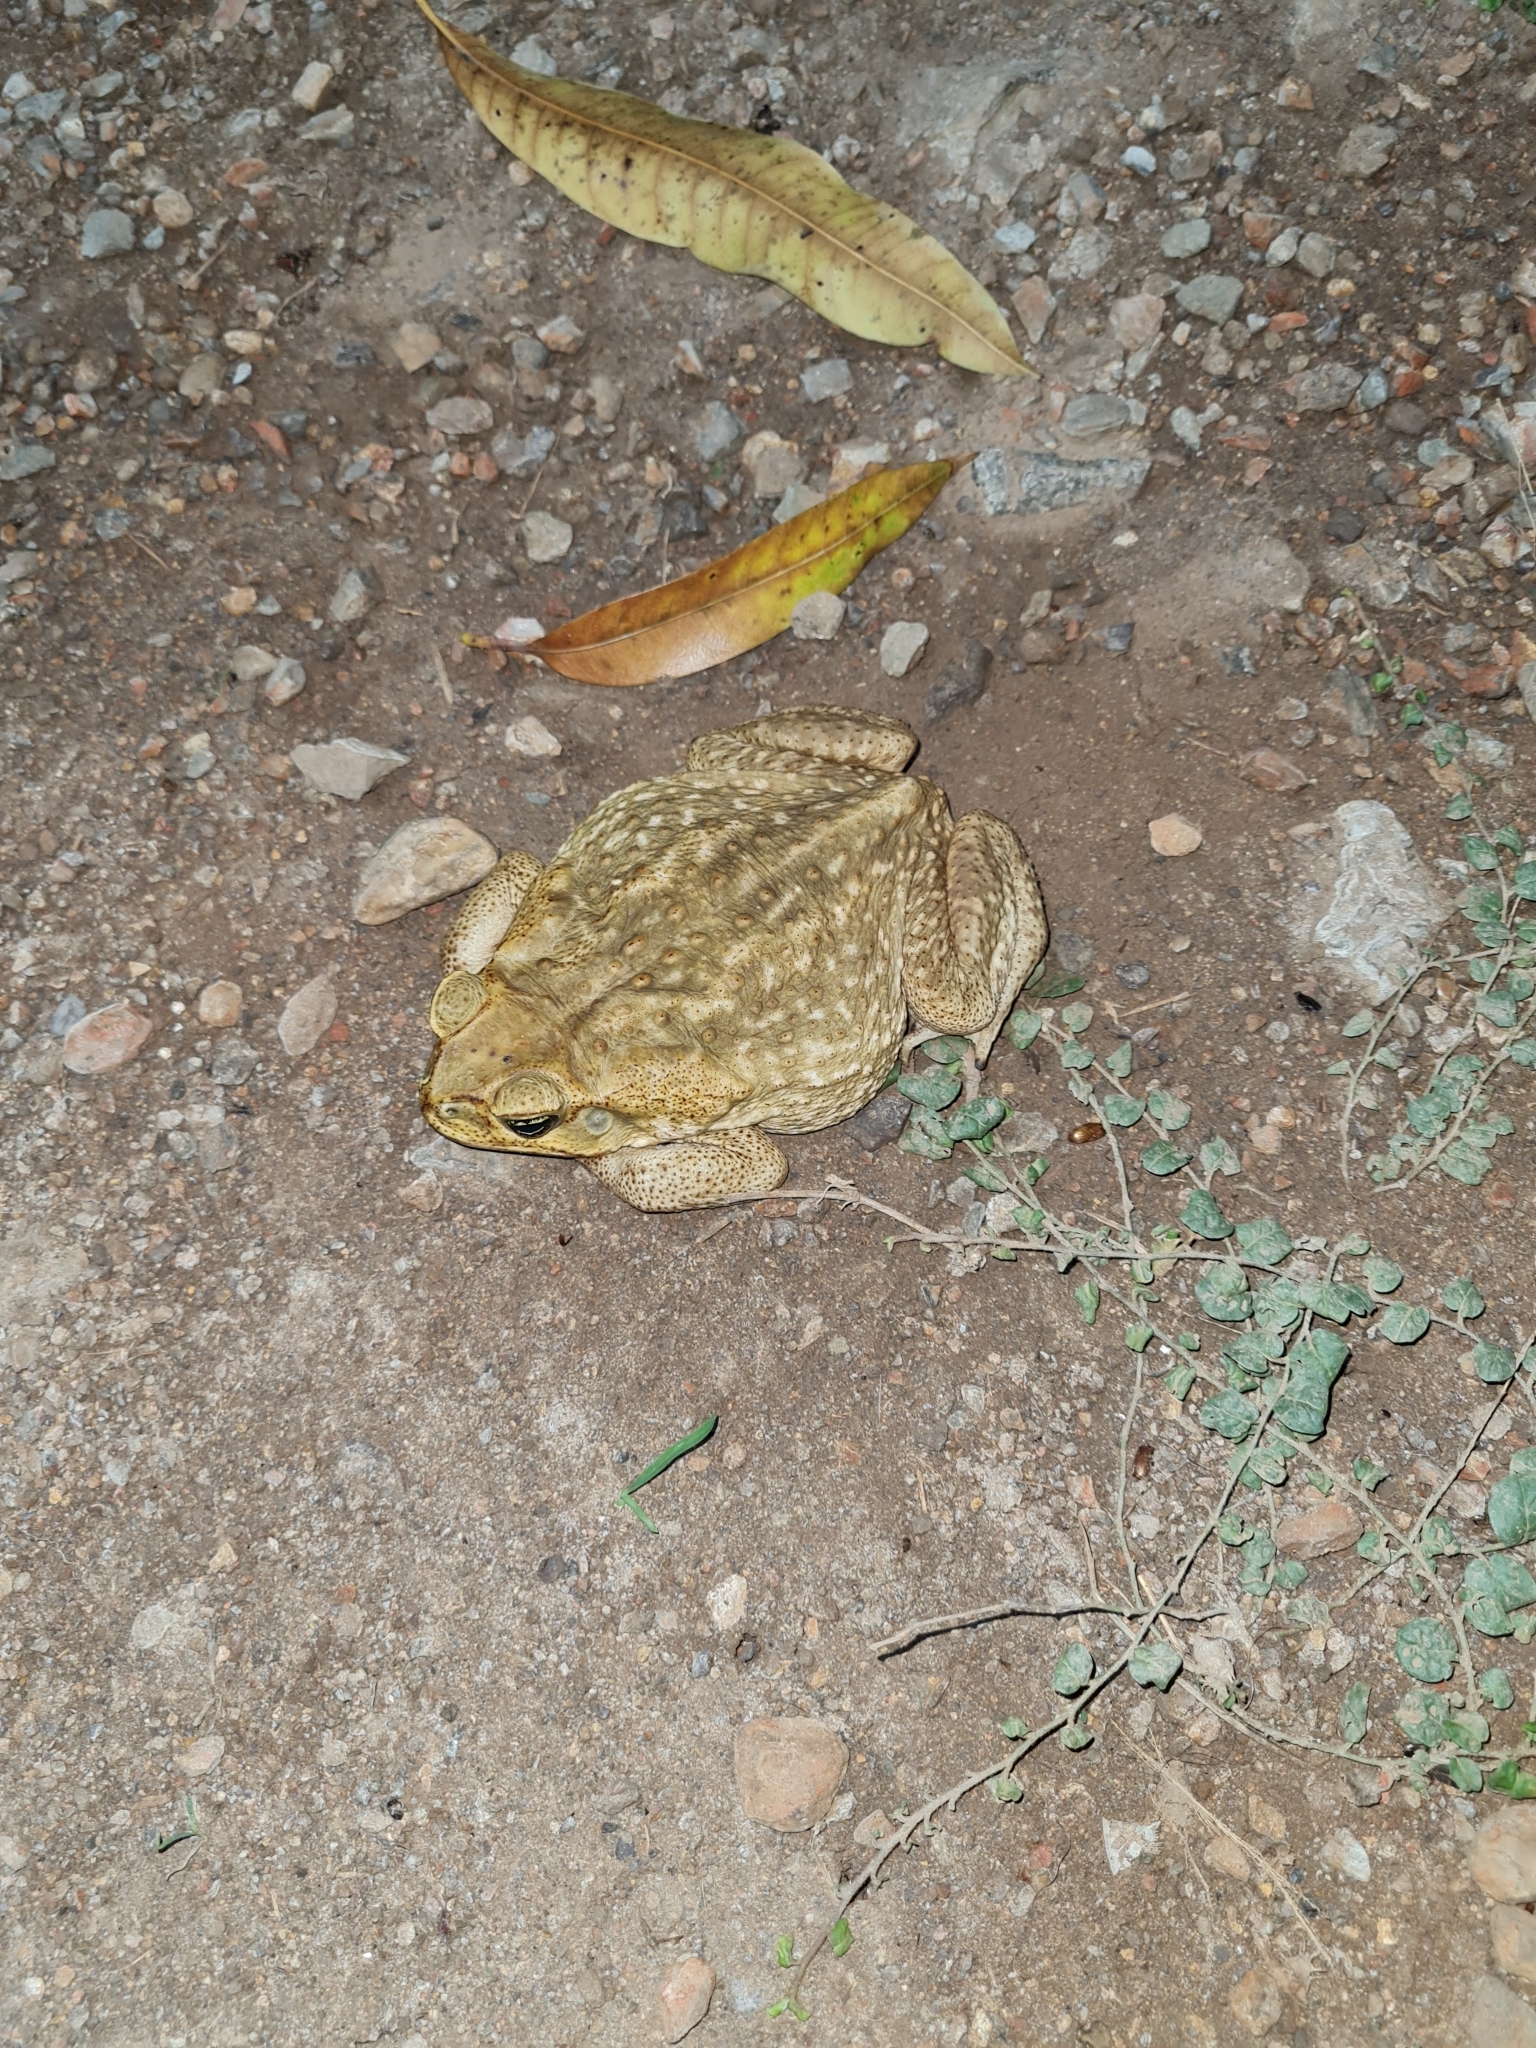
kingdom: Animalia
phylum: Chordata
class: Amphibia
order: Anura
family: Bufonidae
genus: Rhinella
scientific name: Rhinella horribilis
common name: Mesoamerican cane toad
